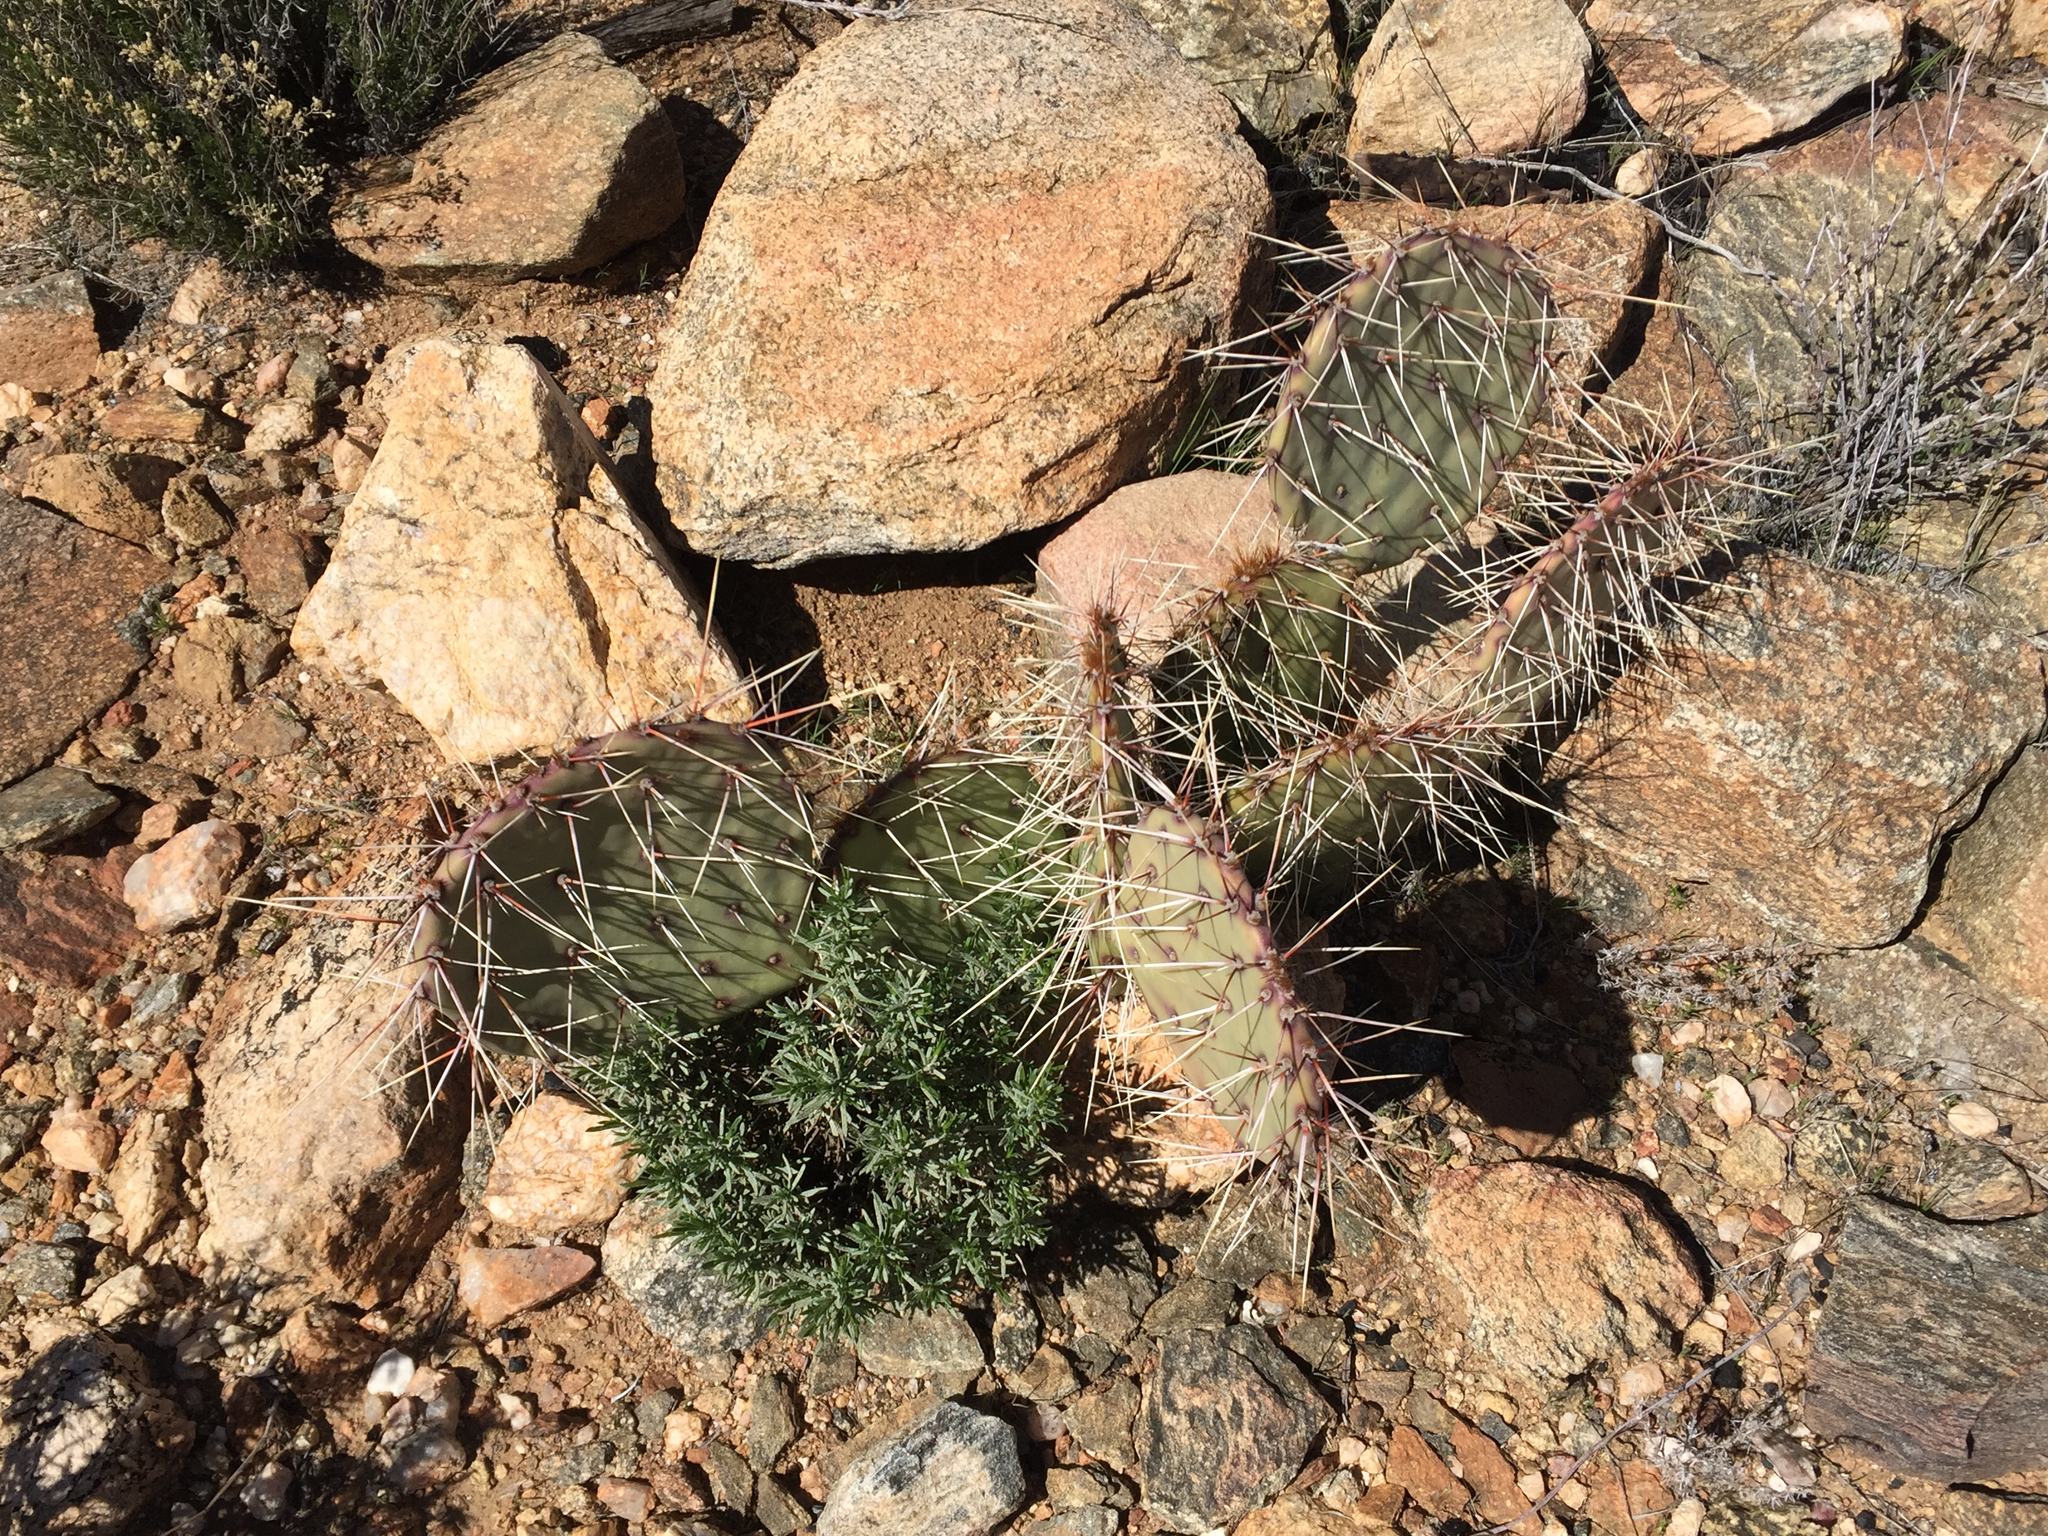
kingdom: Plantae
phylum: Tracheophyta
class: Magnoliopsida
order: Caryophyllales
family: Cactaceae
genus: Opuntia
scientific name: Opuntia phaeacantha
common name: New mexico prickly-pear
